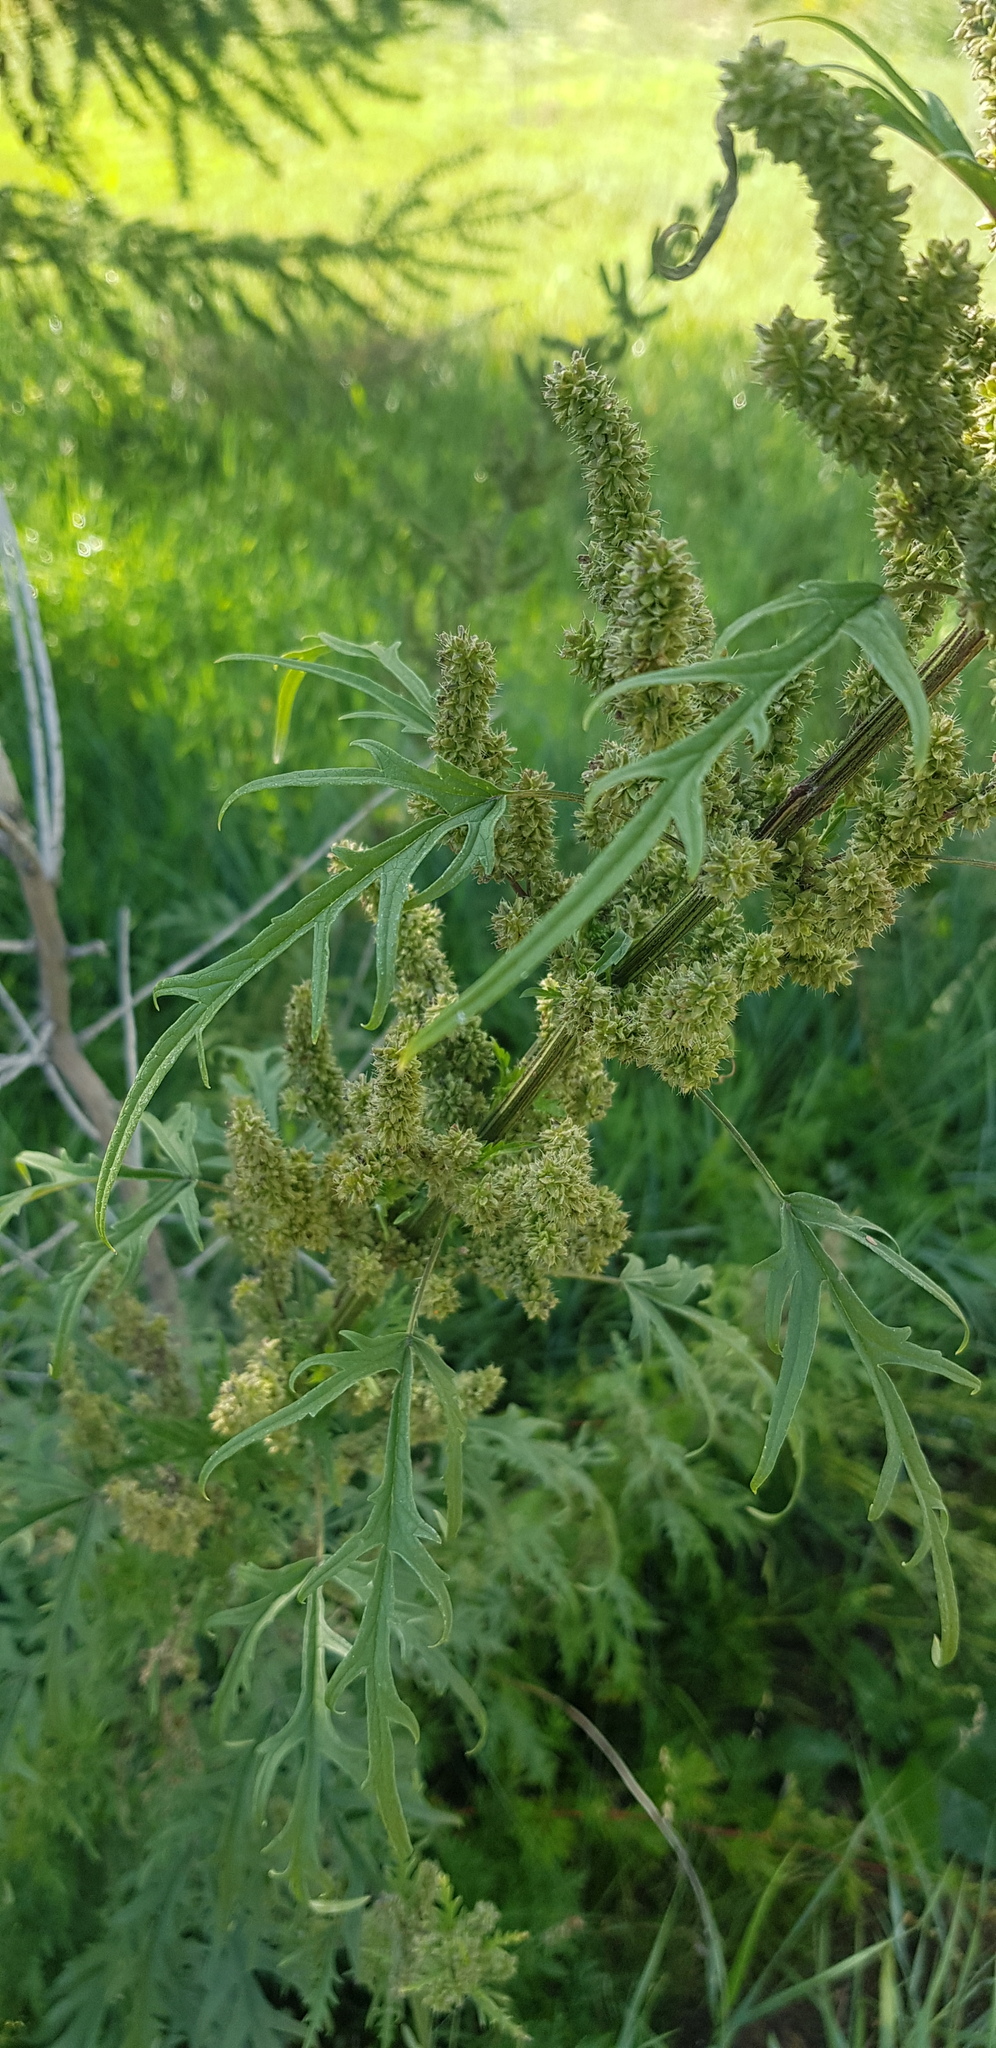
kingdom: Plantae
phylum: Tracheophyta
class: Magnoliopsida
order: Rosales
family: Urticaceae
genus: Urtica
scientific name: Urtica cannabina
